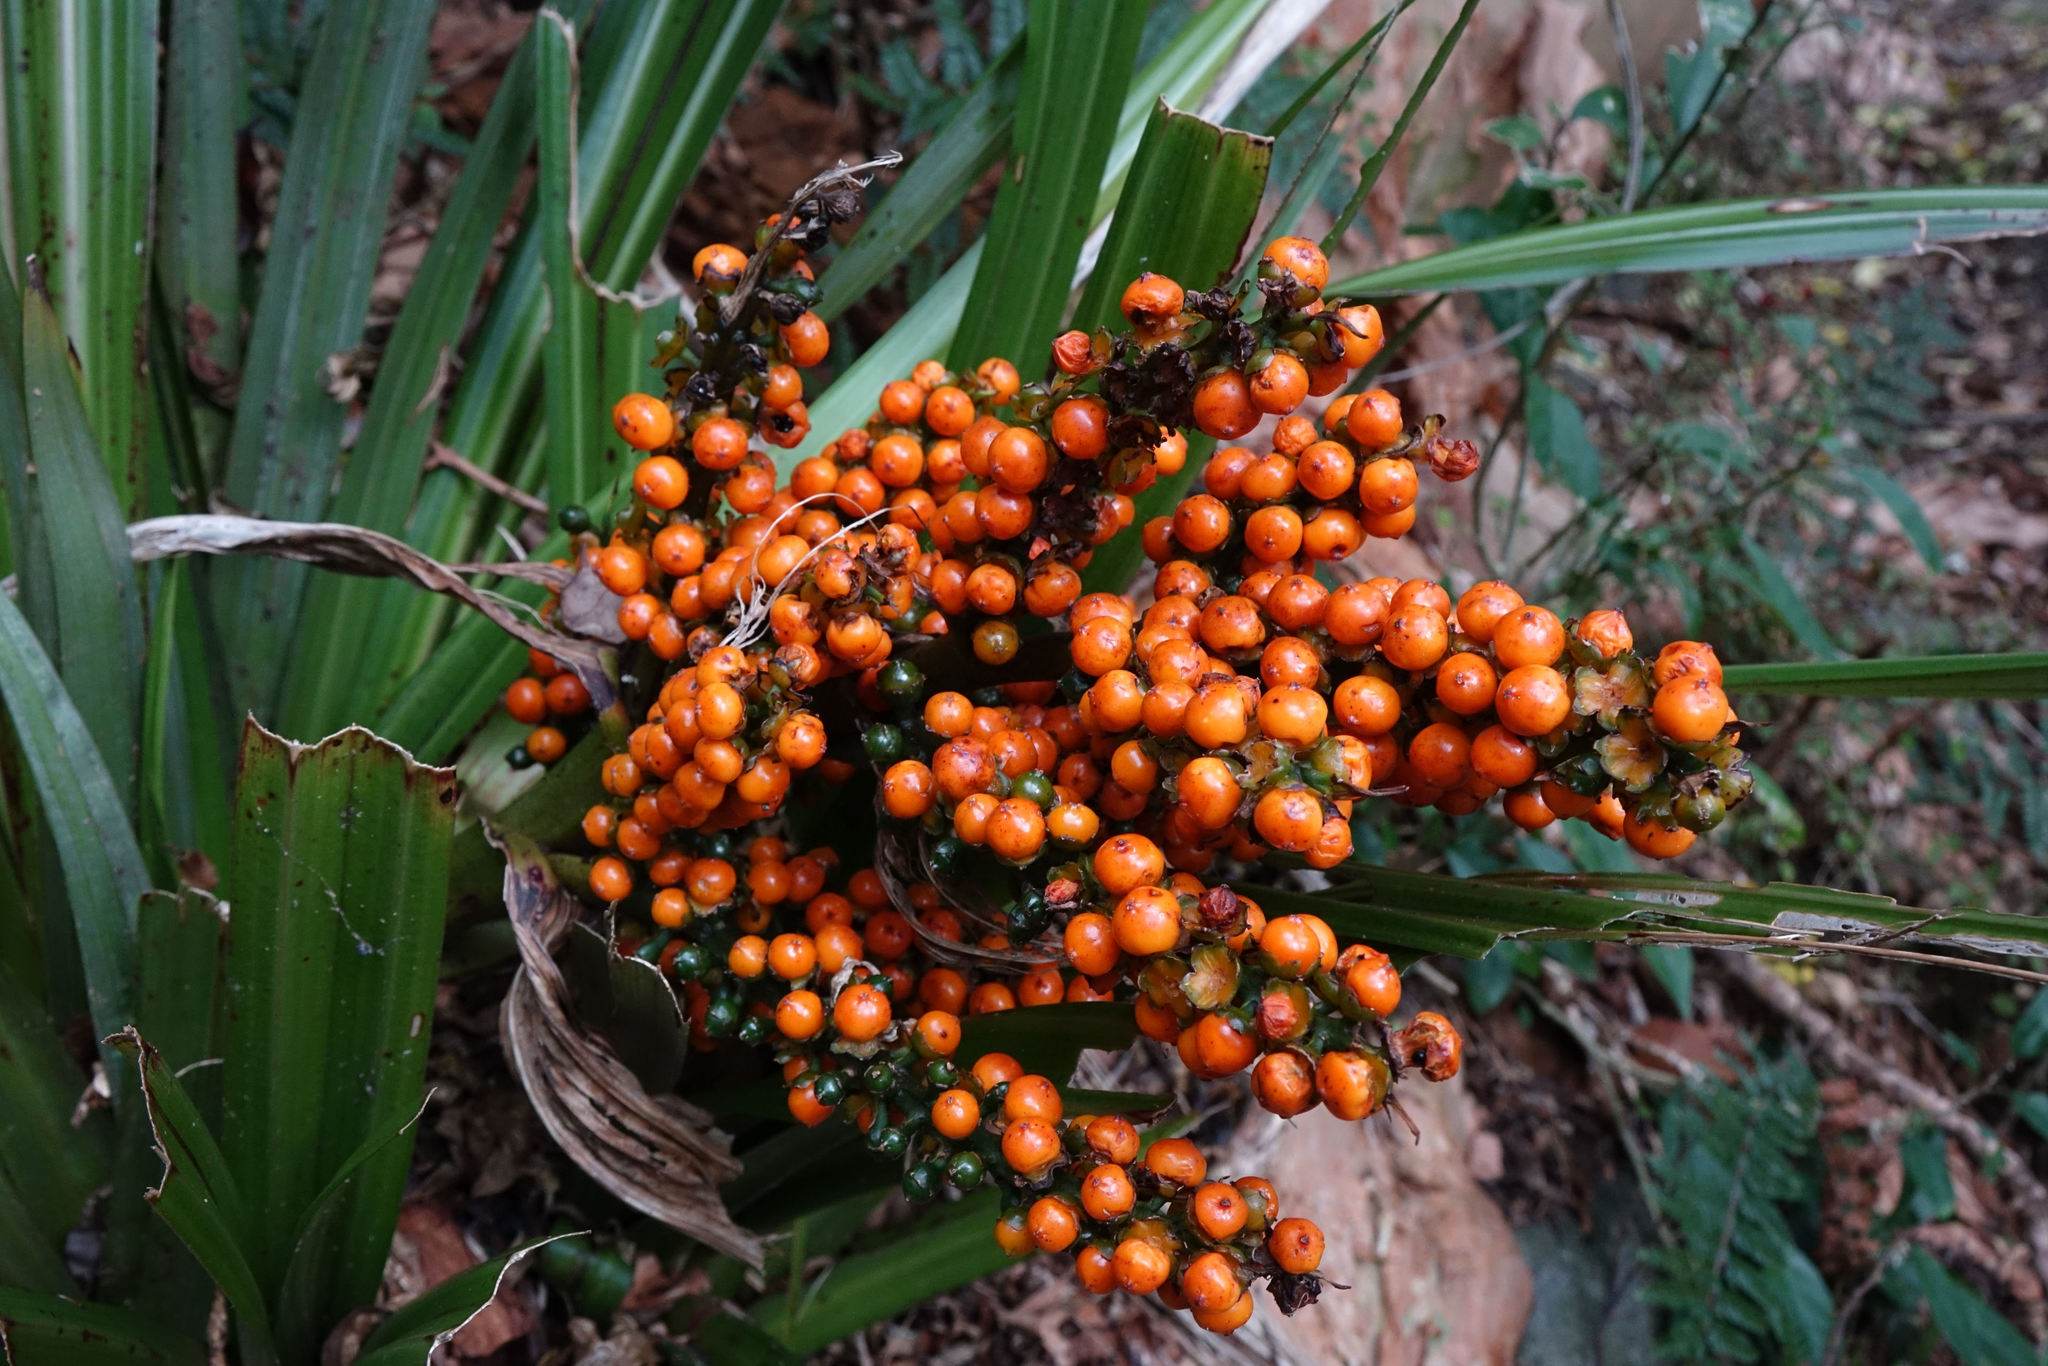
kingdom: Plantae
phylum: Tracheophyta
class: Liliopsida
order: Asparagales
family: Asteliaceae
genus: Astelia
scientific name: Astelia fragrans
